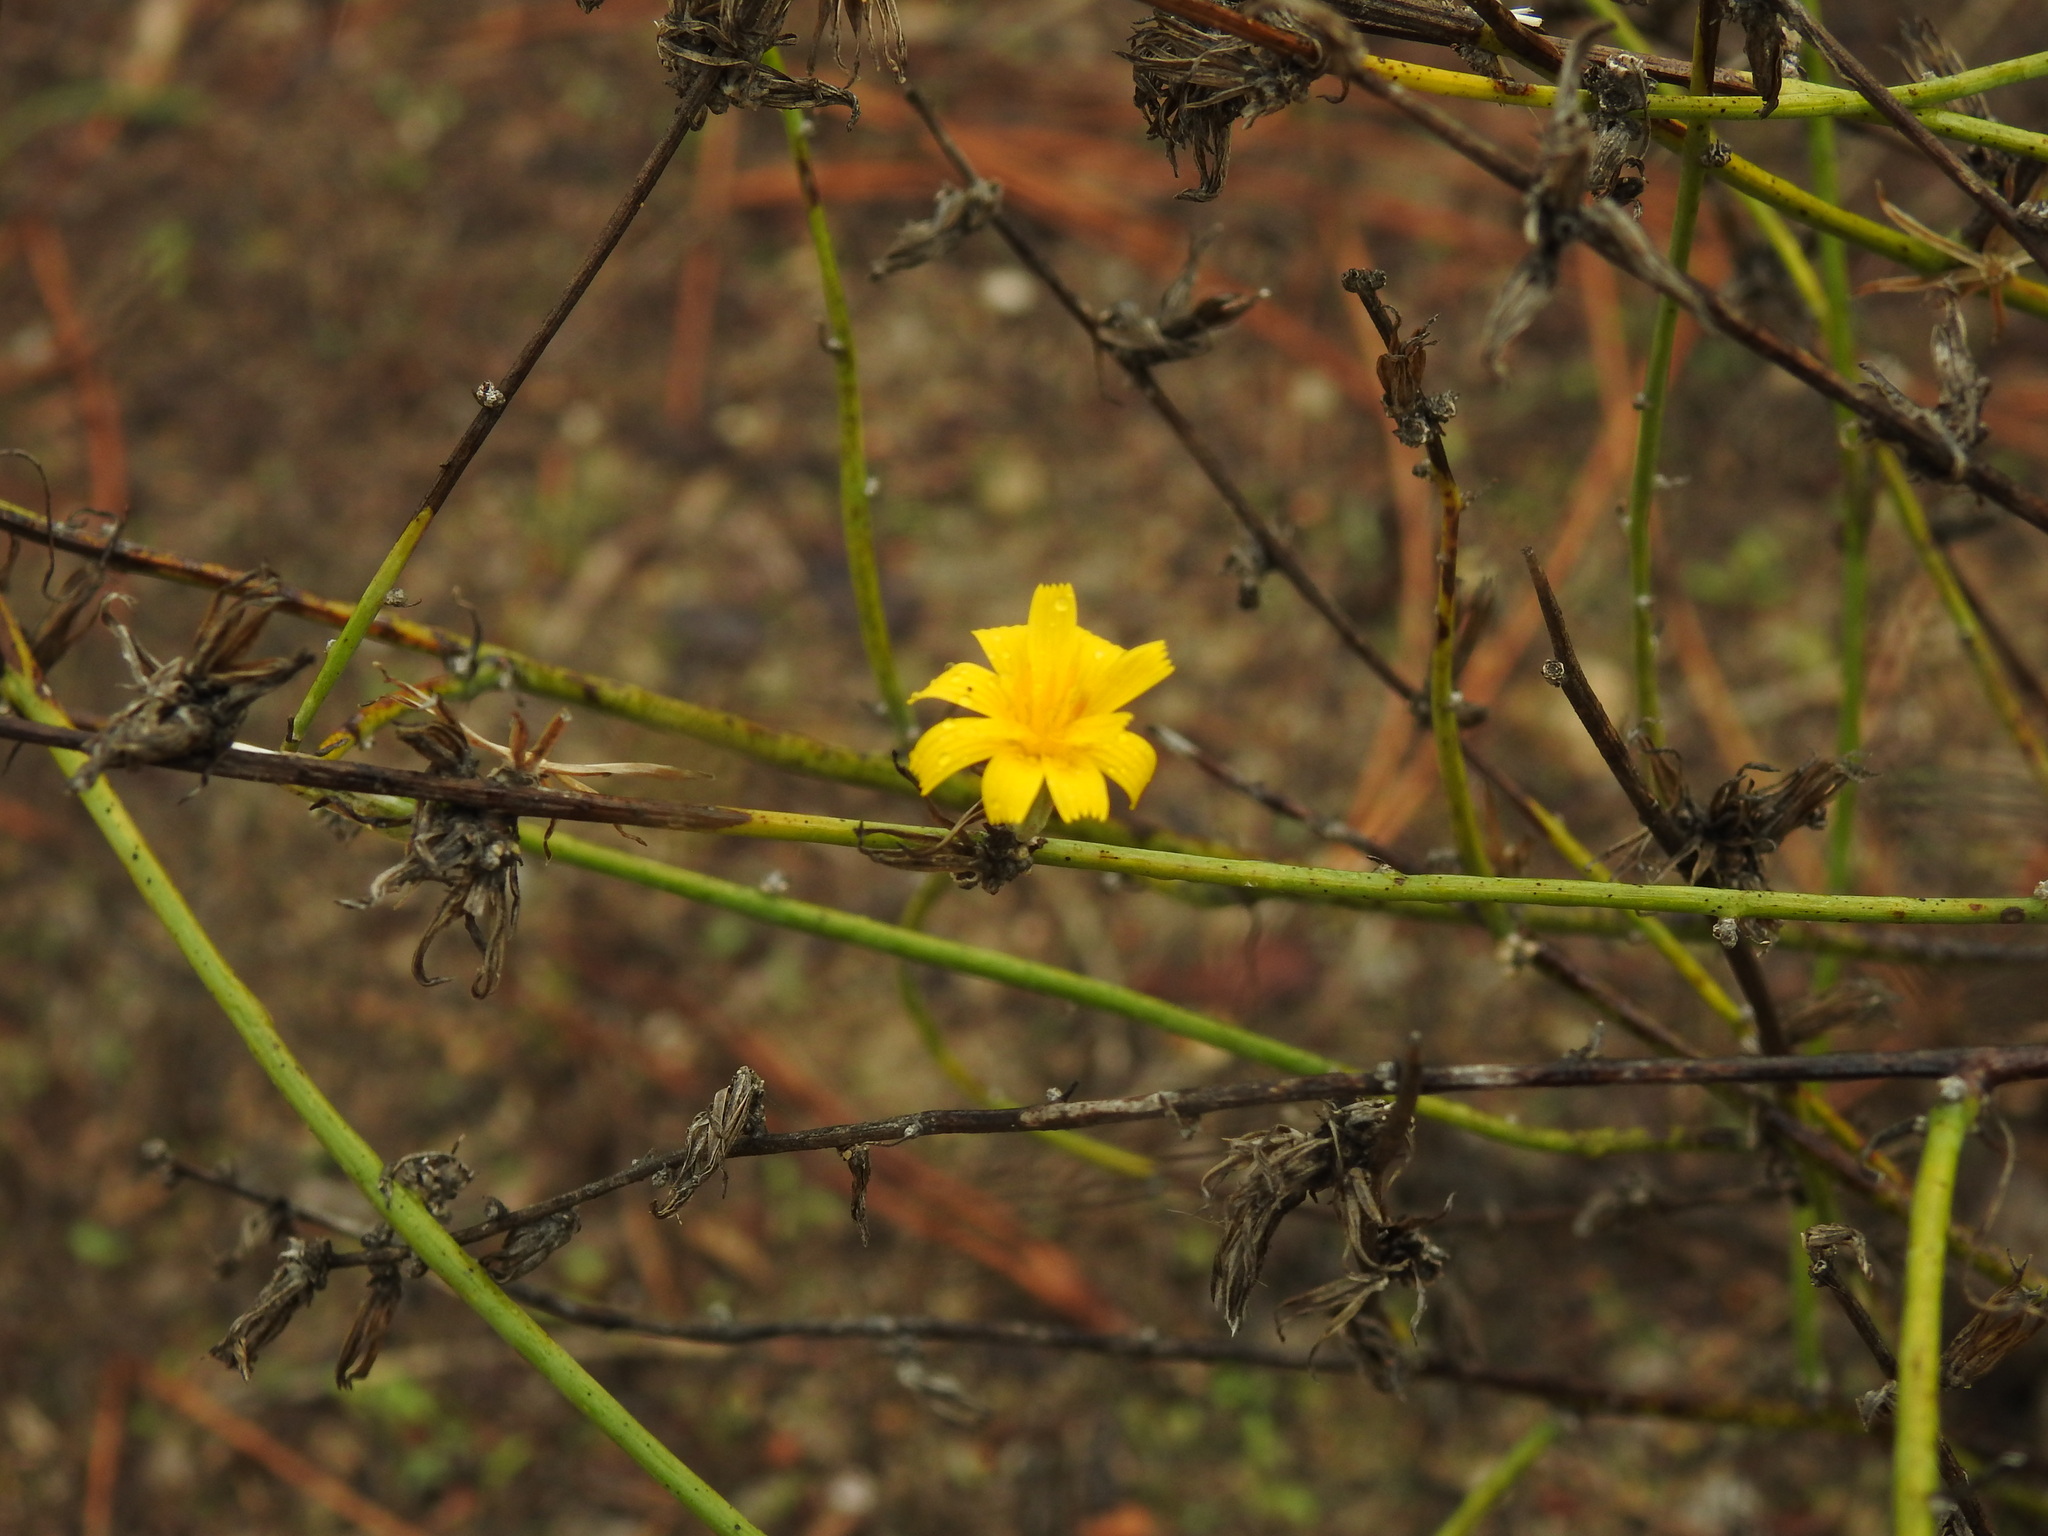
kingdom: Plantae
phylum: Tracheophyta
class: Magnoliopsida
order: Asterales
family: Asteraceae
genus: Chondrilla
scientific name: Chondrilla juncea
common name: Skeleton weed
